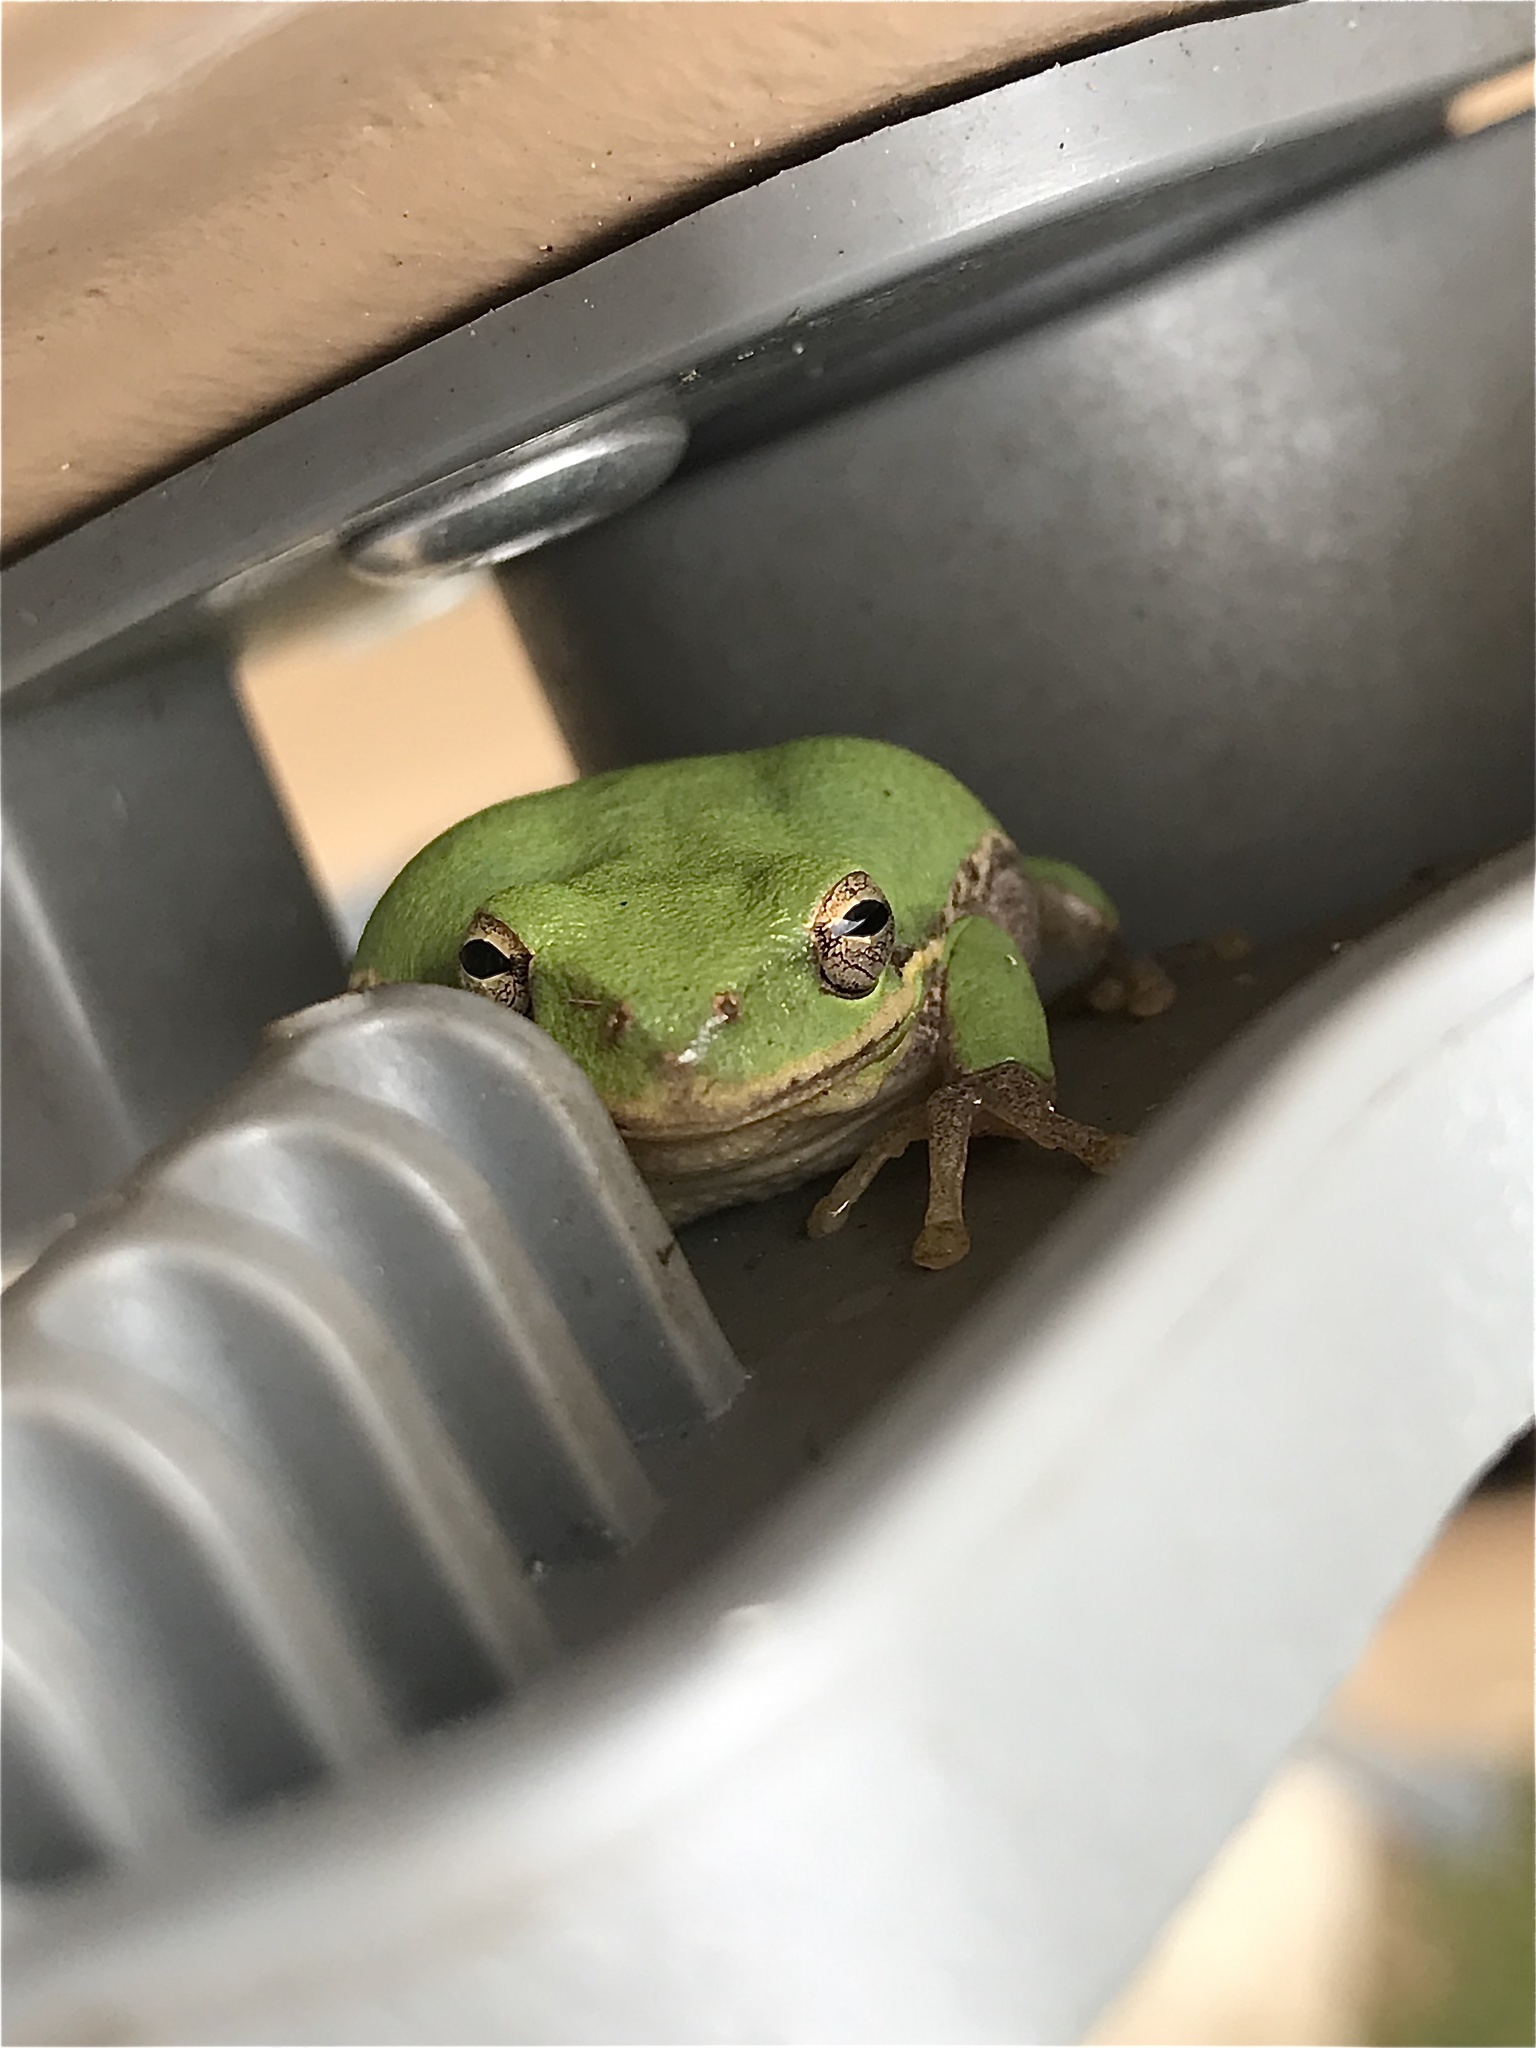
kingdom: Animalia
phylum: Chordata
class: Amphibia
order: Anura
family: Hylidae
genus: Dryophytes
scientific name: Dryophytes squirellus
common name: Squirrel treefrog
